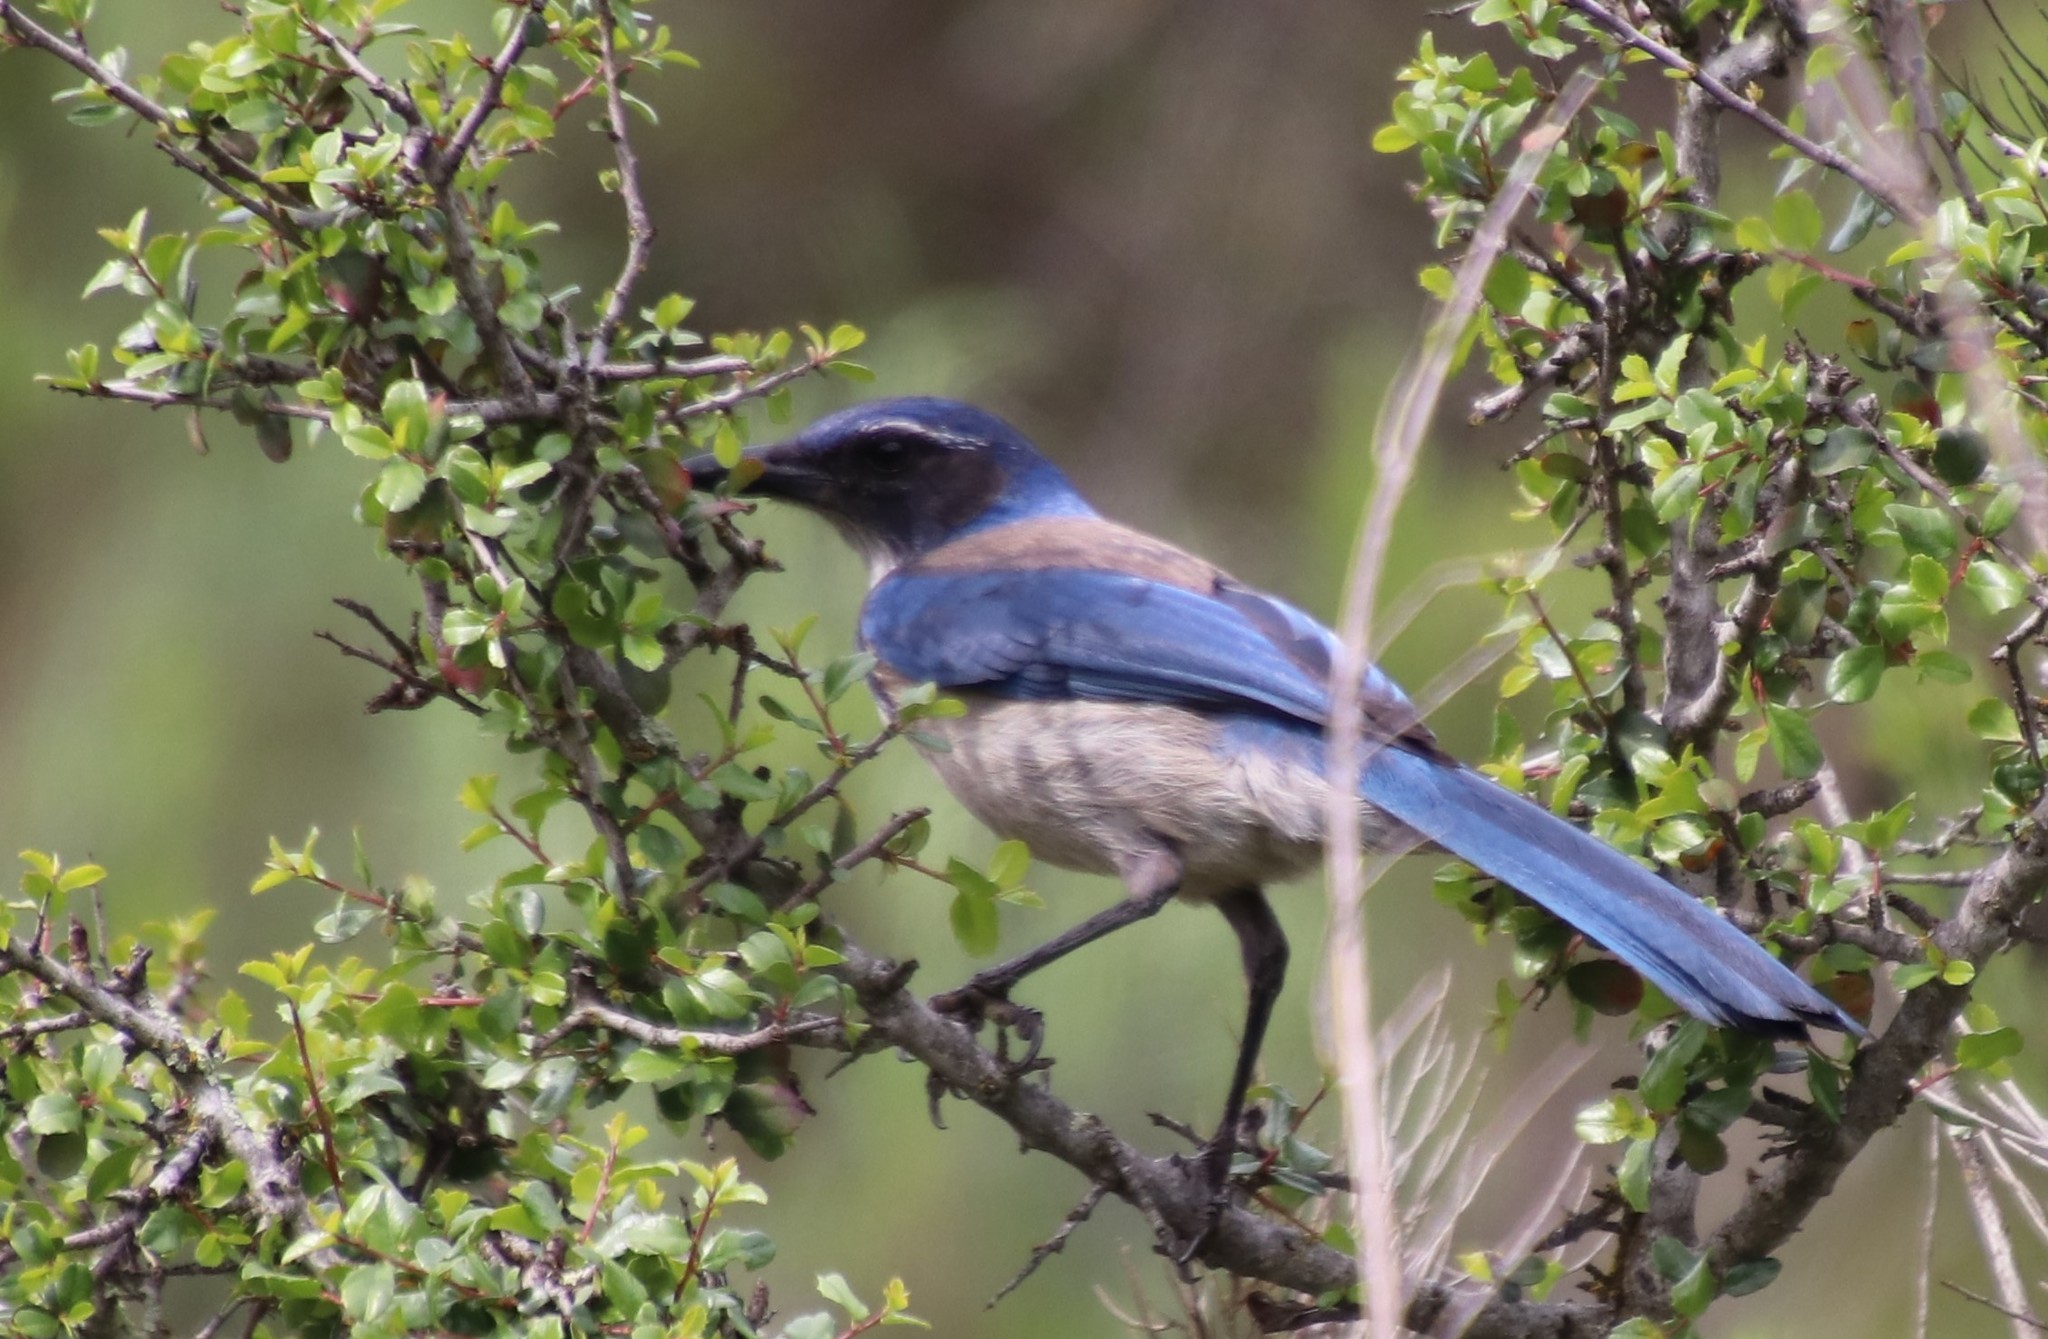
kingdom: Animalia
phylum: Chordata
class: Aves
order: Passeriformes
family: Corvidae
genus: Aphelocoma
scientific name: Aphelocoma californica
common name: California scrub-jay
